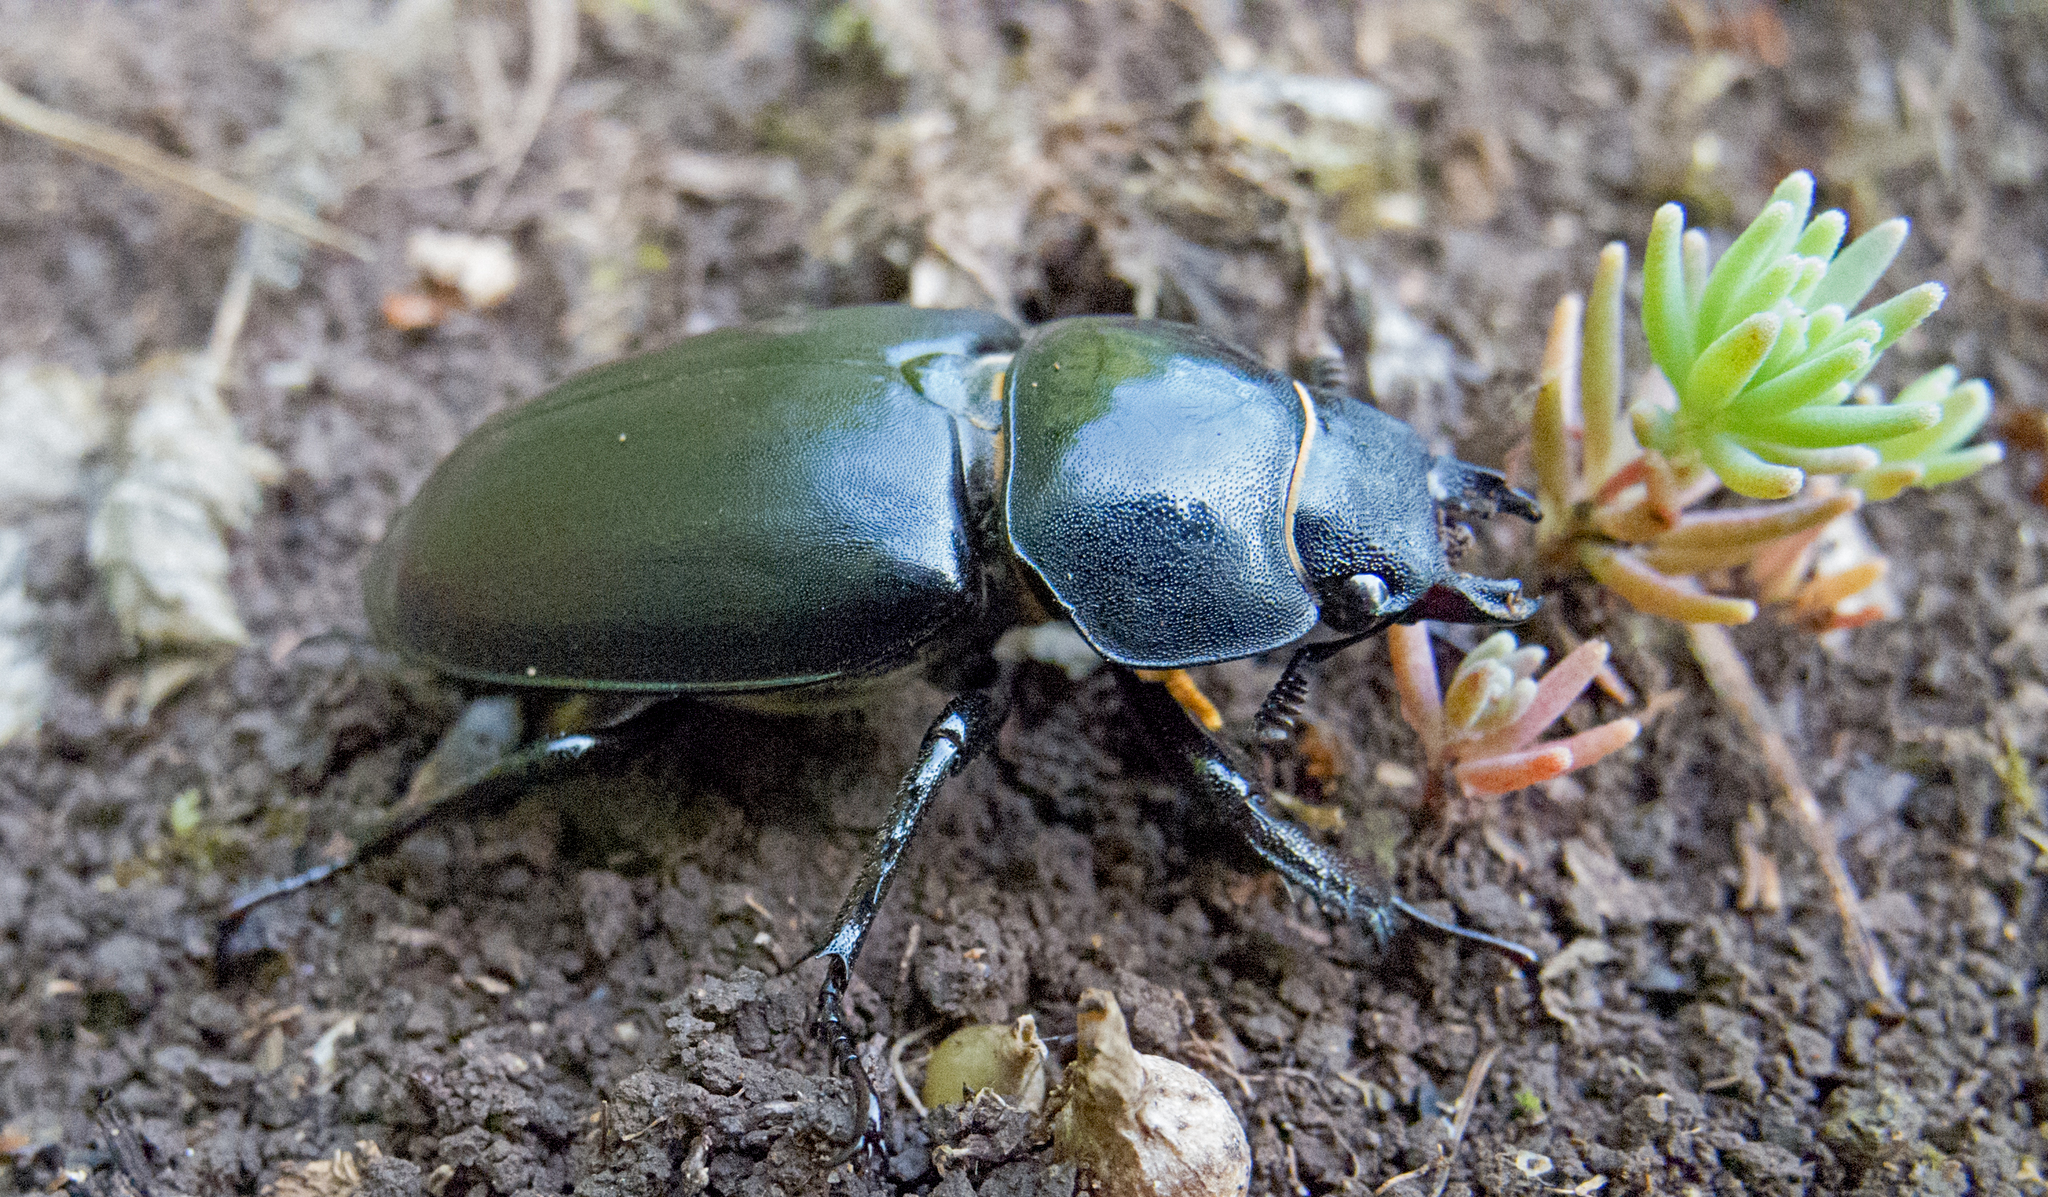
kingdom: Animalia
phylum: Arthropoda
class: Insecta
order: Coleoptera
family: Lucanidae
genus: Lucanus
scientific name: Lucanus cervus
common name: Stag beetle
